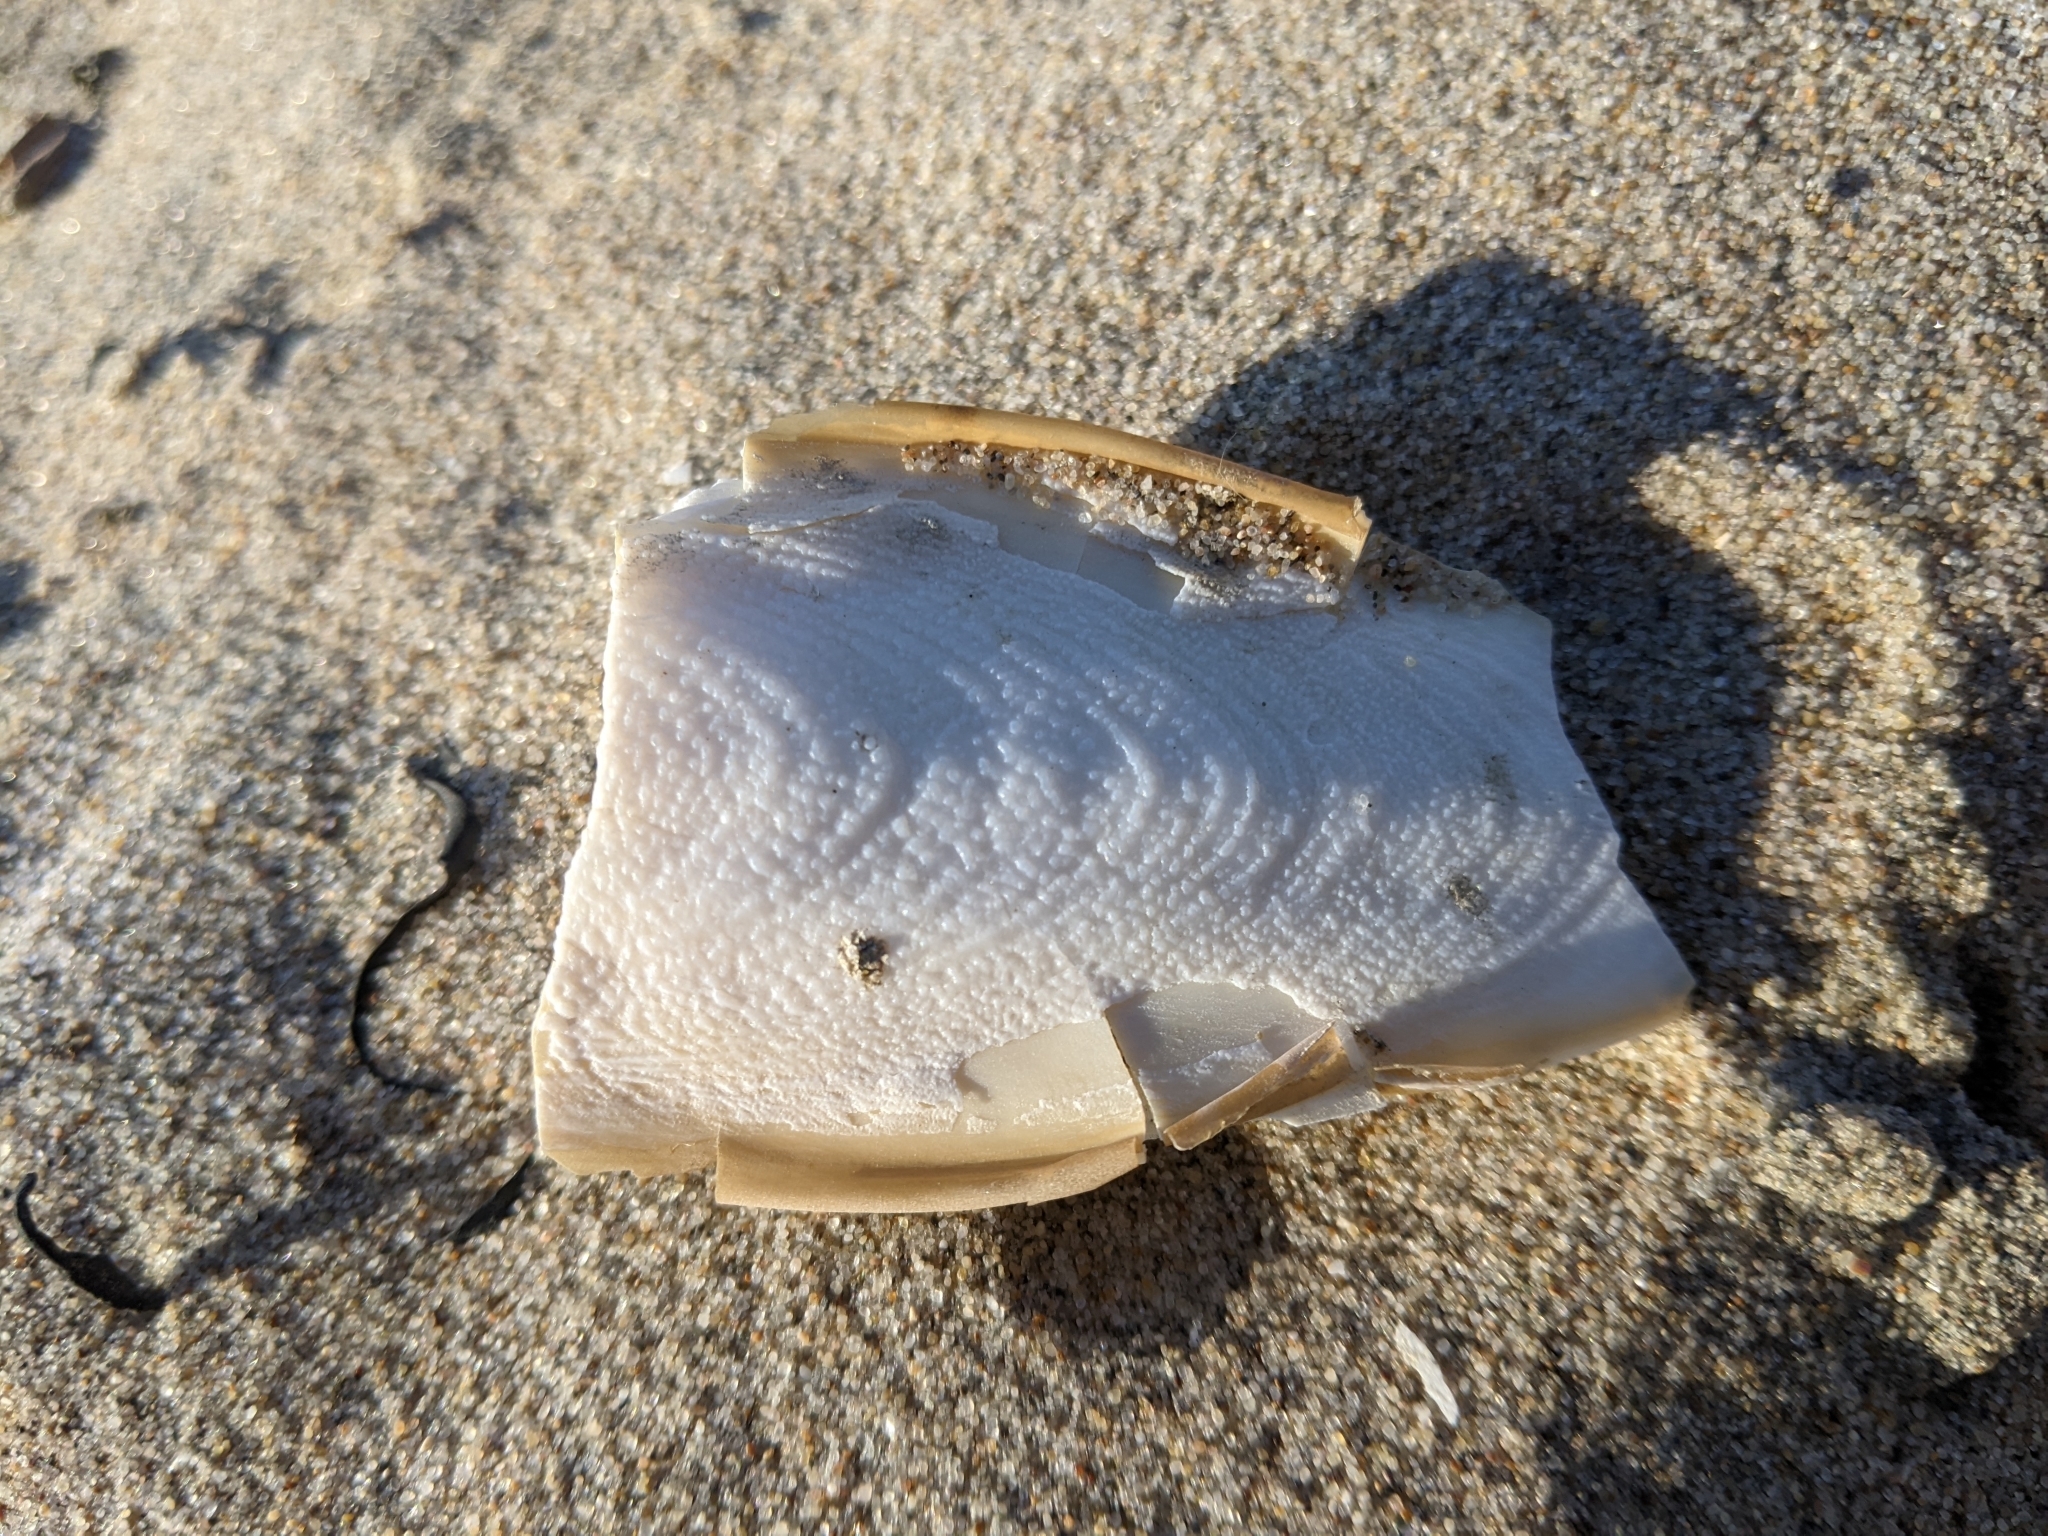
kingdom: Animalia
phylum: Mollusca
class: Cephalopoda
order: Sepiida
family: Sepiidae
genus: Sepia
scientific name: Sepia officinalis
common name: Common cuttlefish
